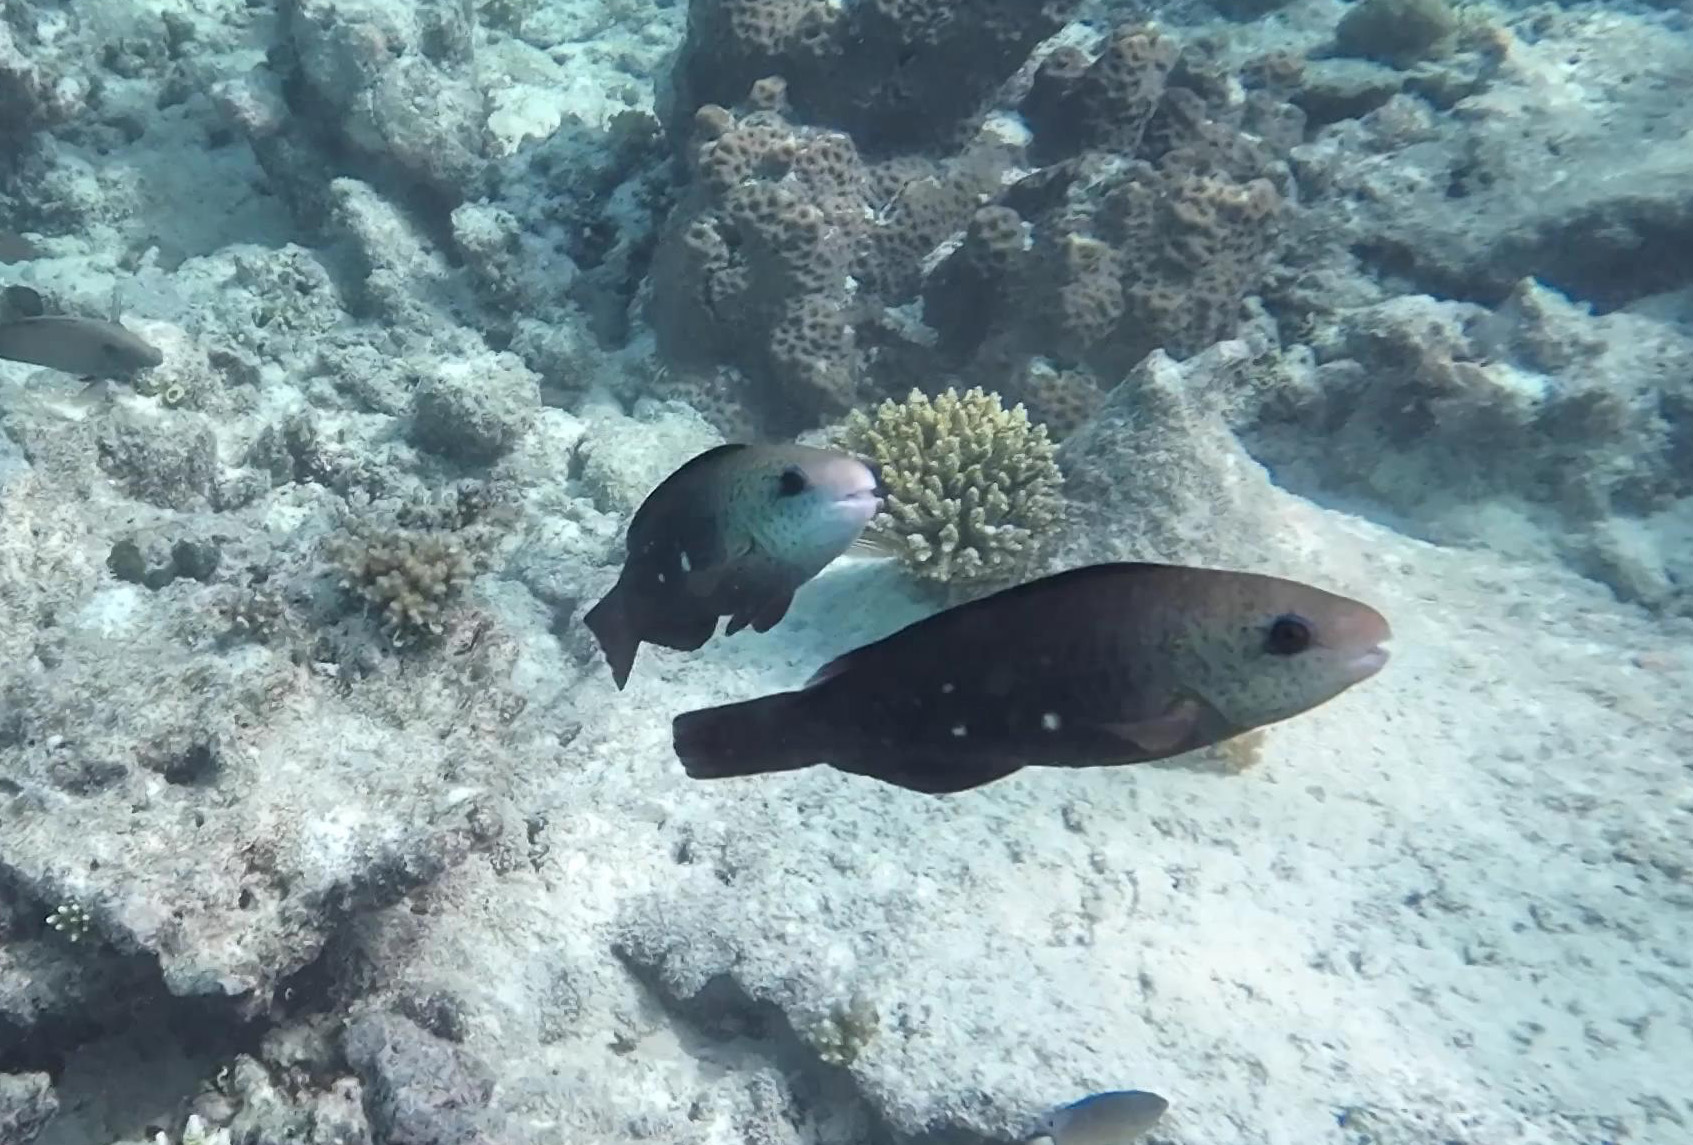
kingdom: Animalia
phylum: Chordata
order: Perciformes
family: Scaridae
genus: Chlorurus
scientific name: Chlorurus sordidus
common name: Bullethead parrotfish
